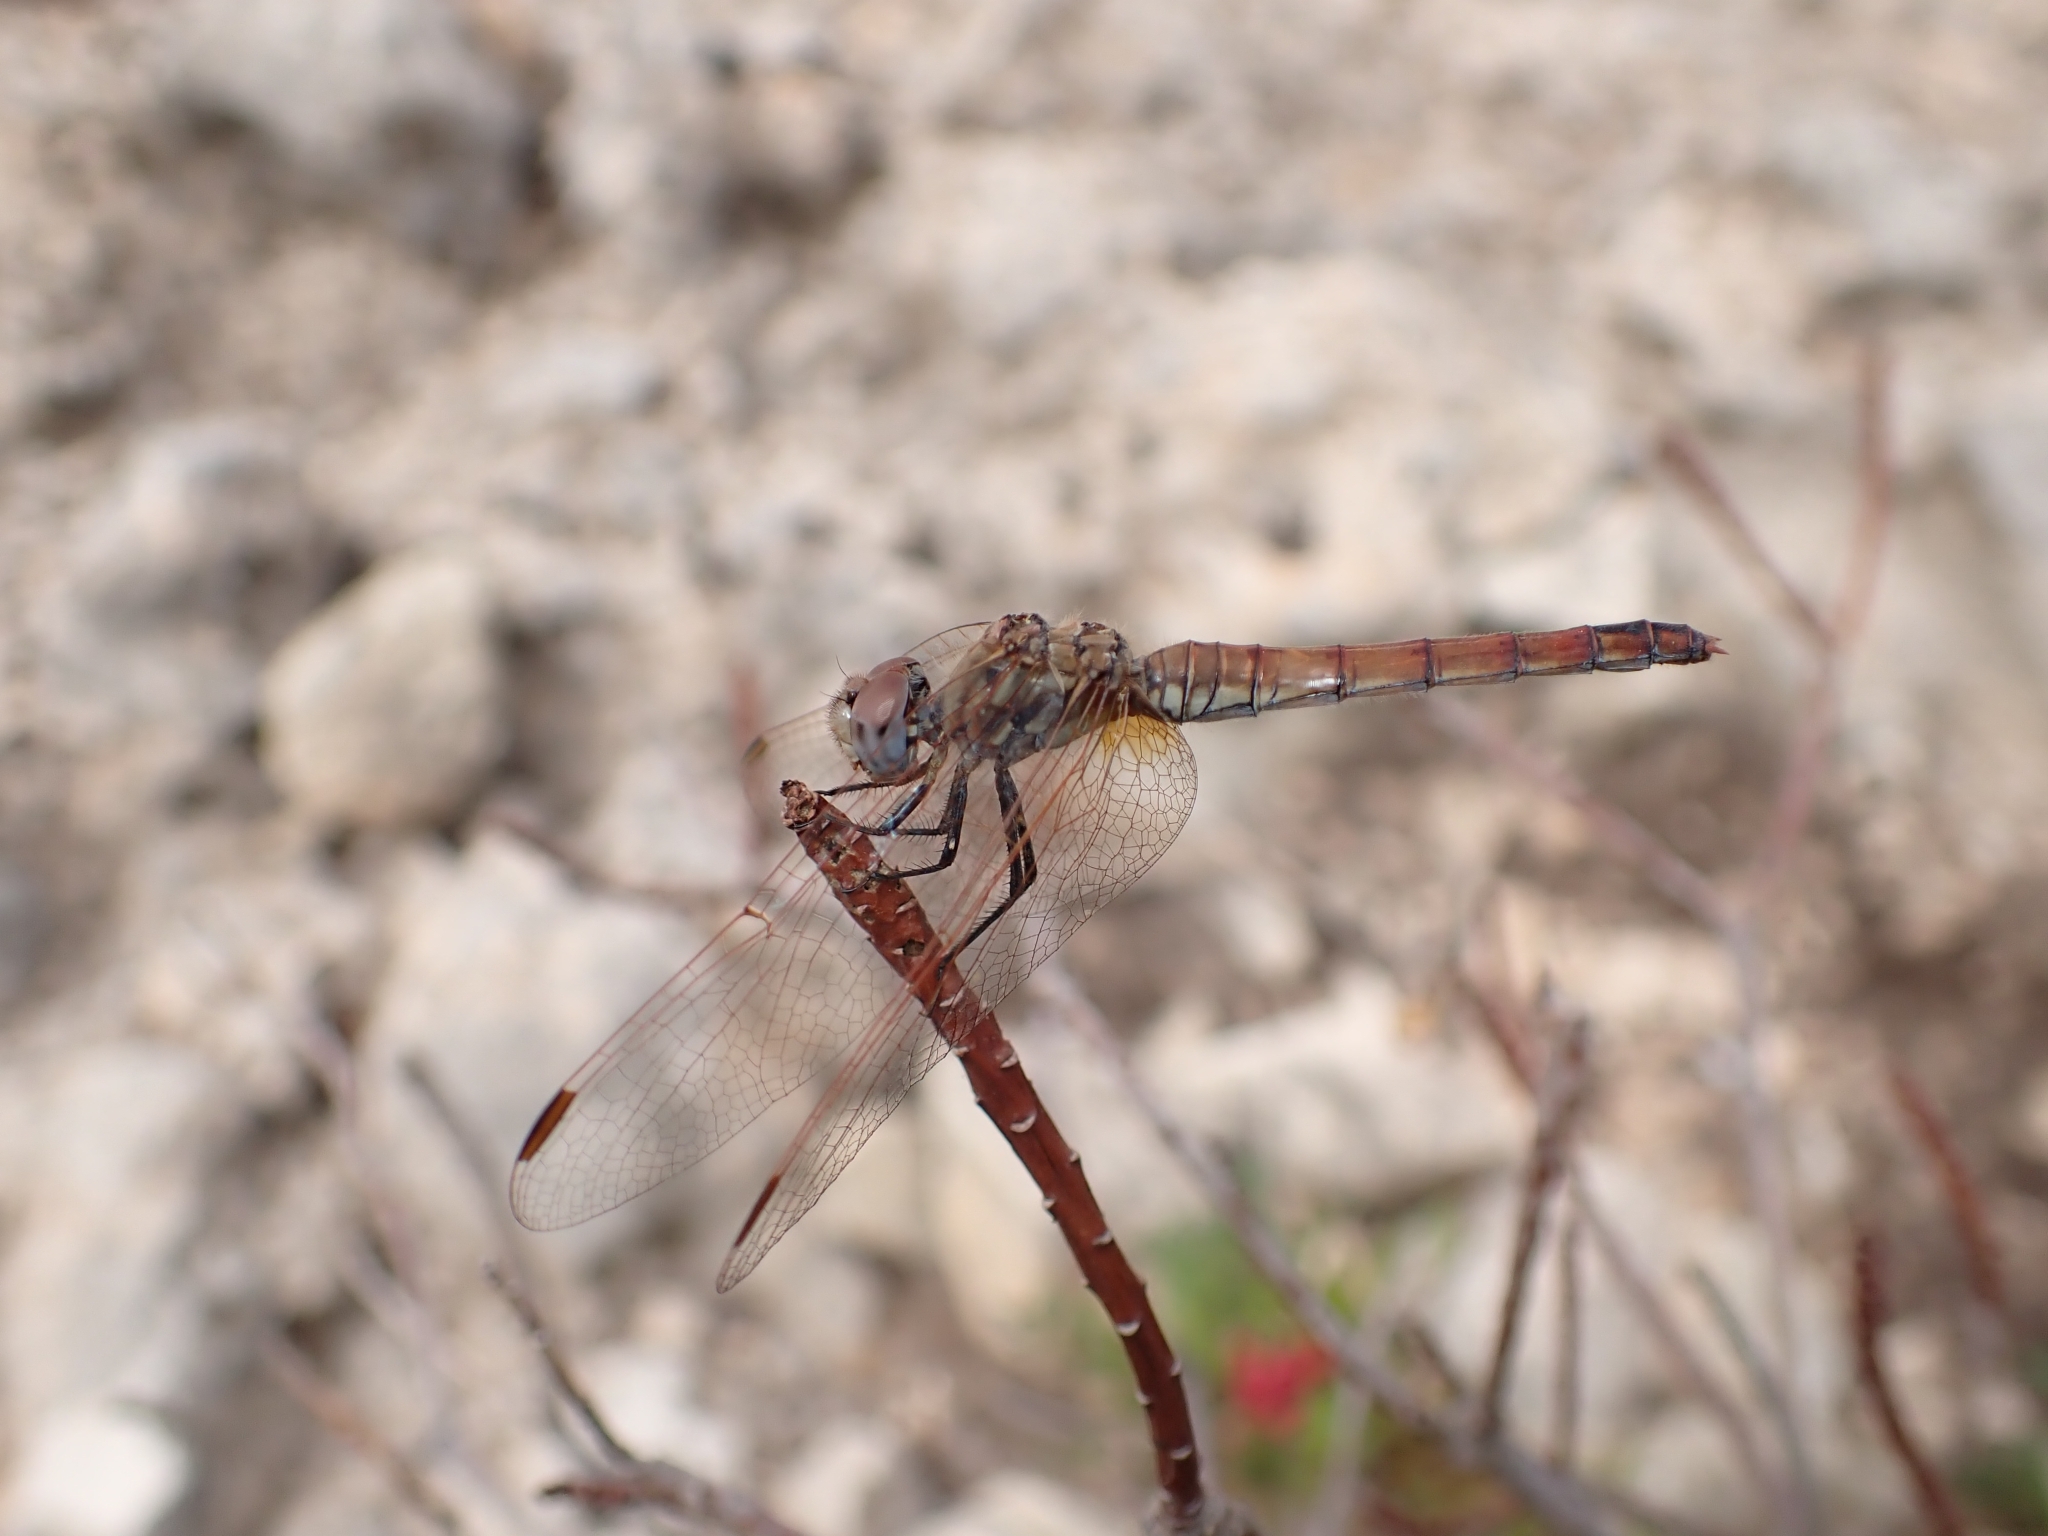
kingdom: Animalia
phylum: Arthropoda
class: Insecta
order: Odonata
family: Libellulidae
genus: Trithemis
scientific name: Trithemis annulata
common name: Violet dropwing
